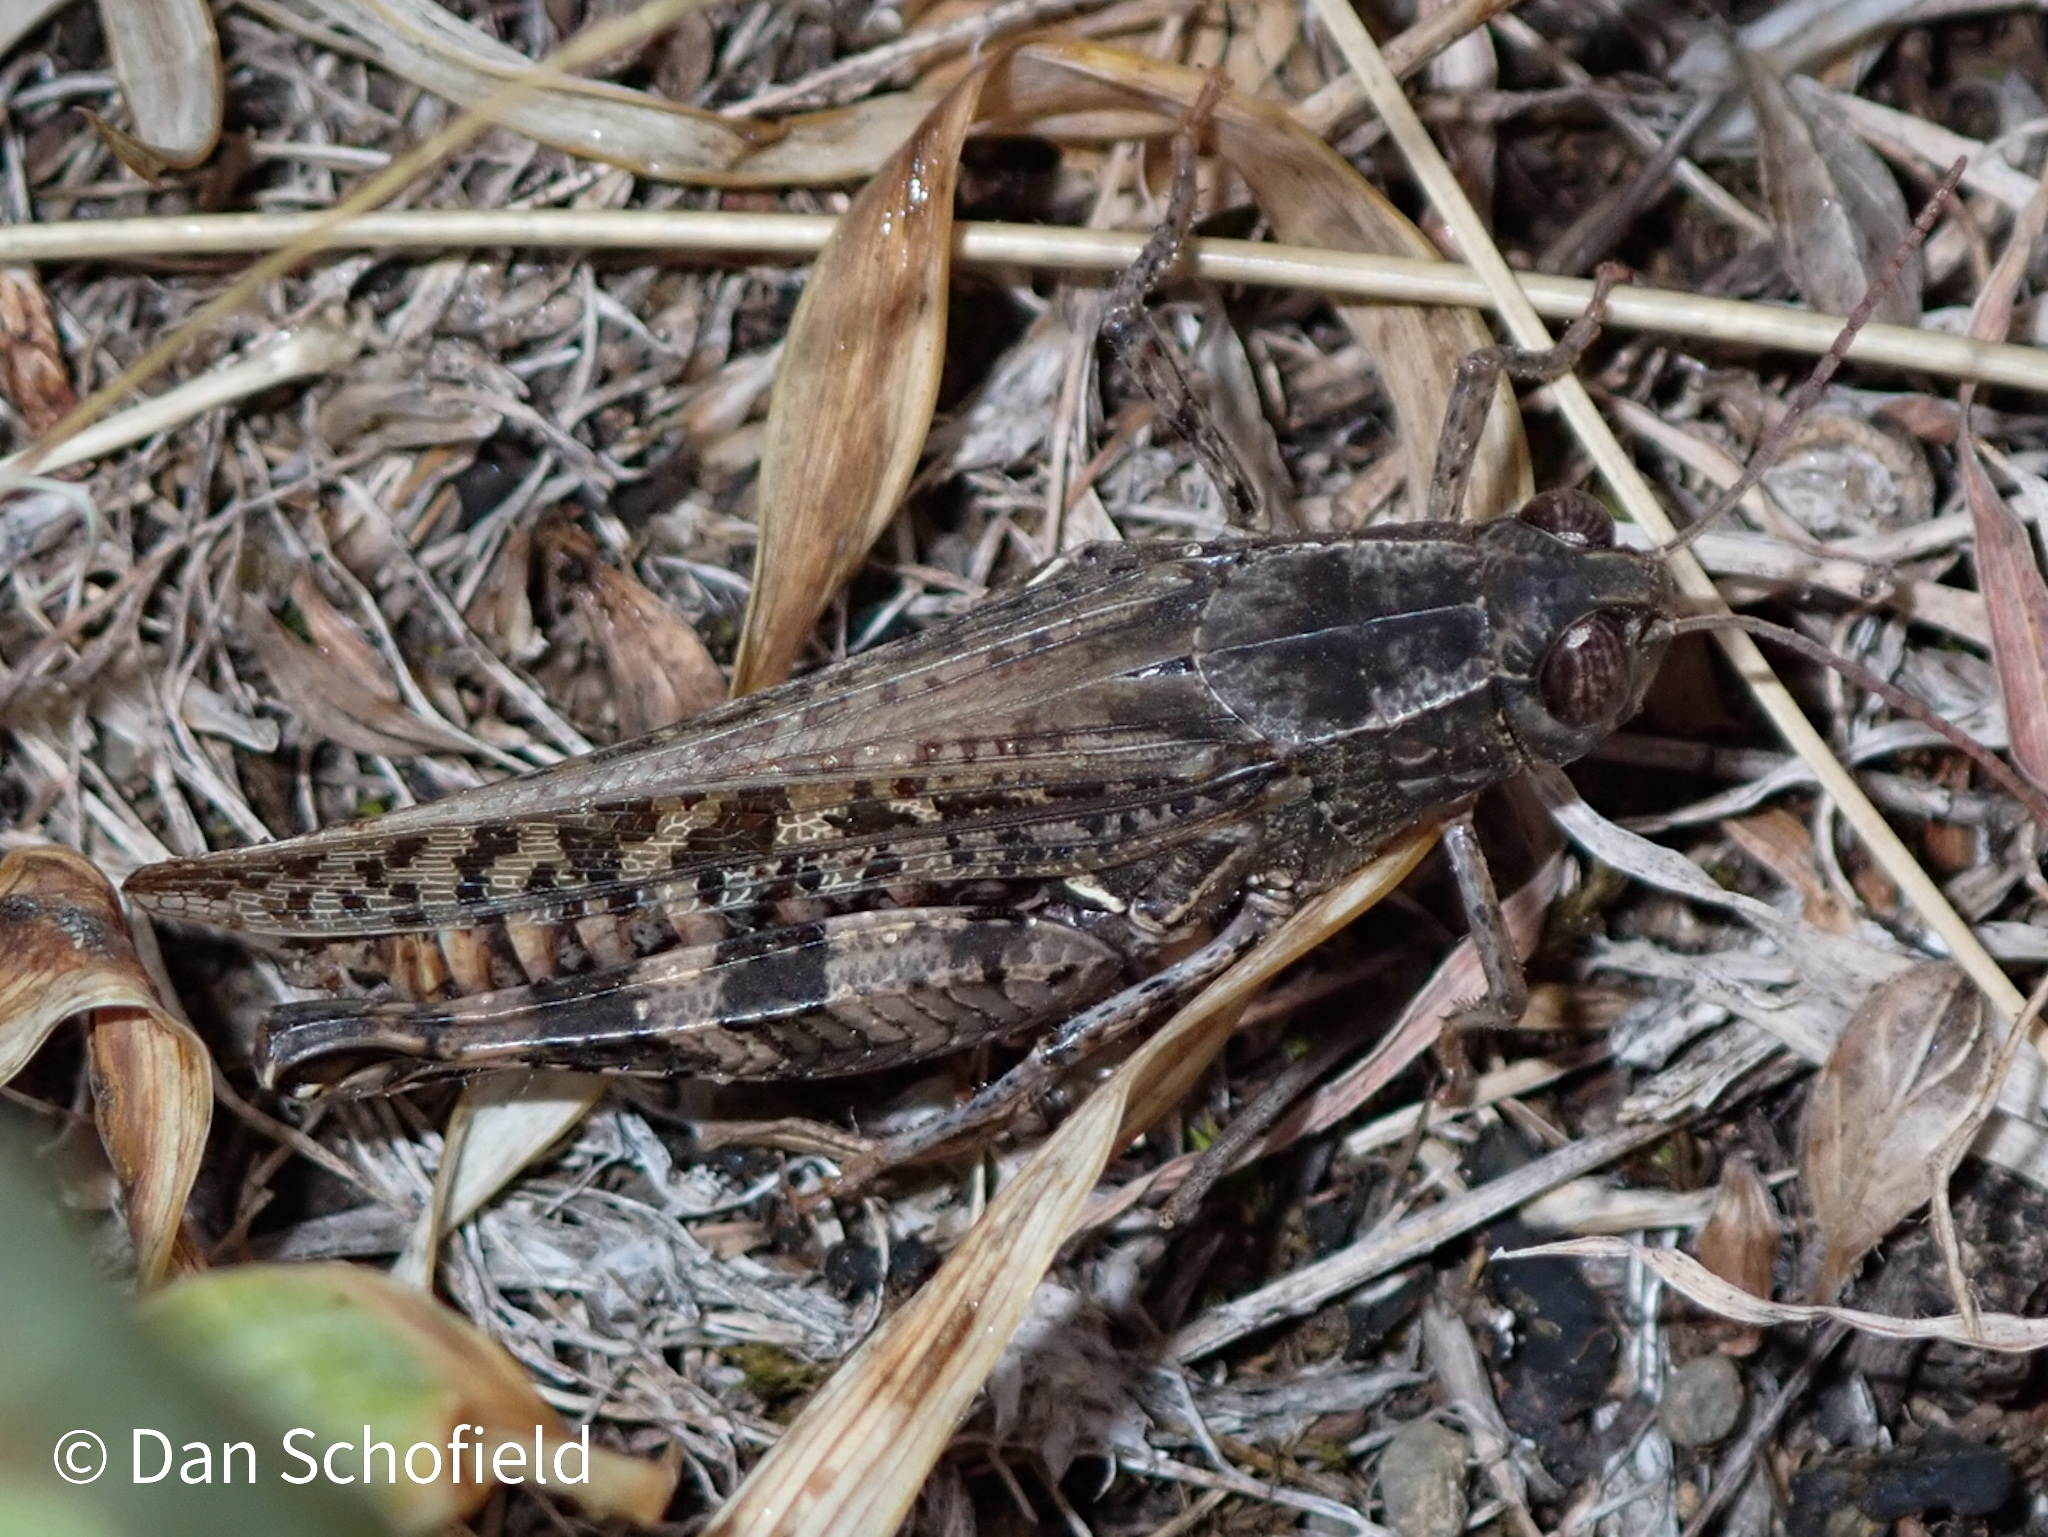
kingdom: Animalia
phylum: Arthropoda
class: Insecta
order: Orthoptera
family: Acrididae
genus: Calliptamus
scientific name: Calliptamus italicus
